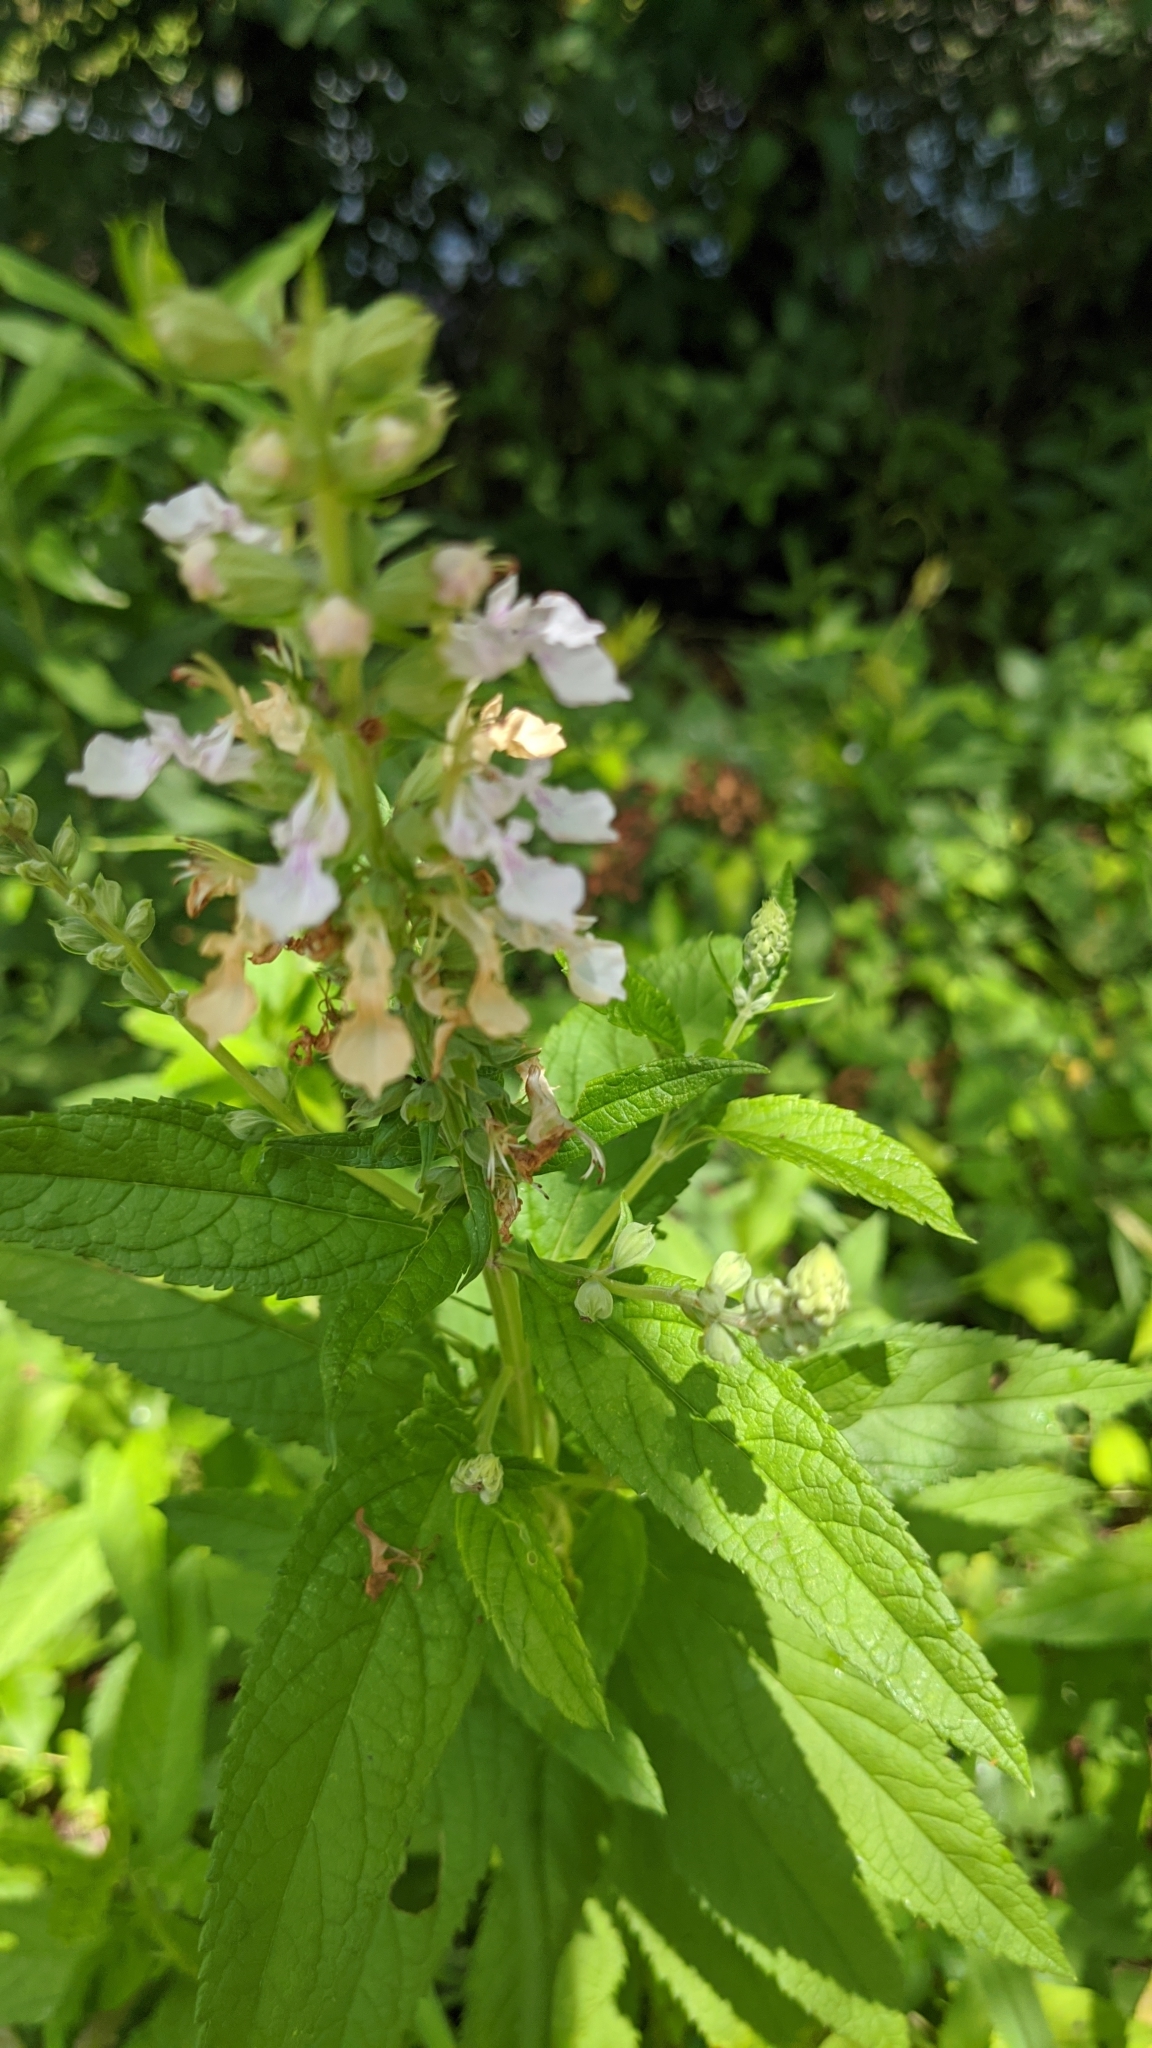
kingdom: Plantae
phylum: Tracheophyta
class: Magnoliopsida
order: Lamiales
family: Lamiaceae
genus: Teucrium
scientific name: Teucrium canadense
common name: American germander
